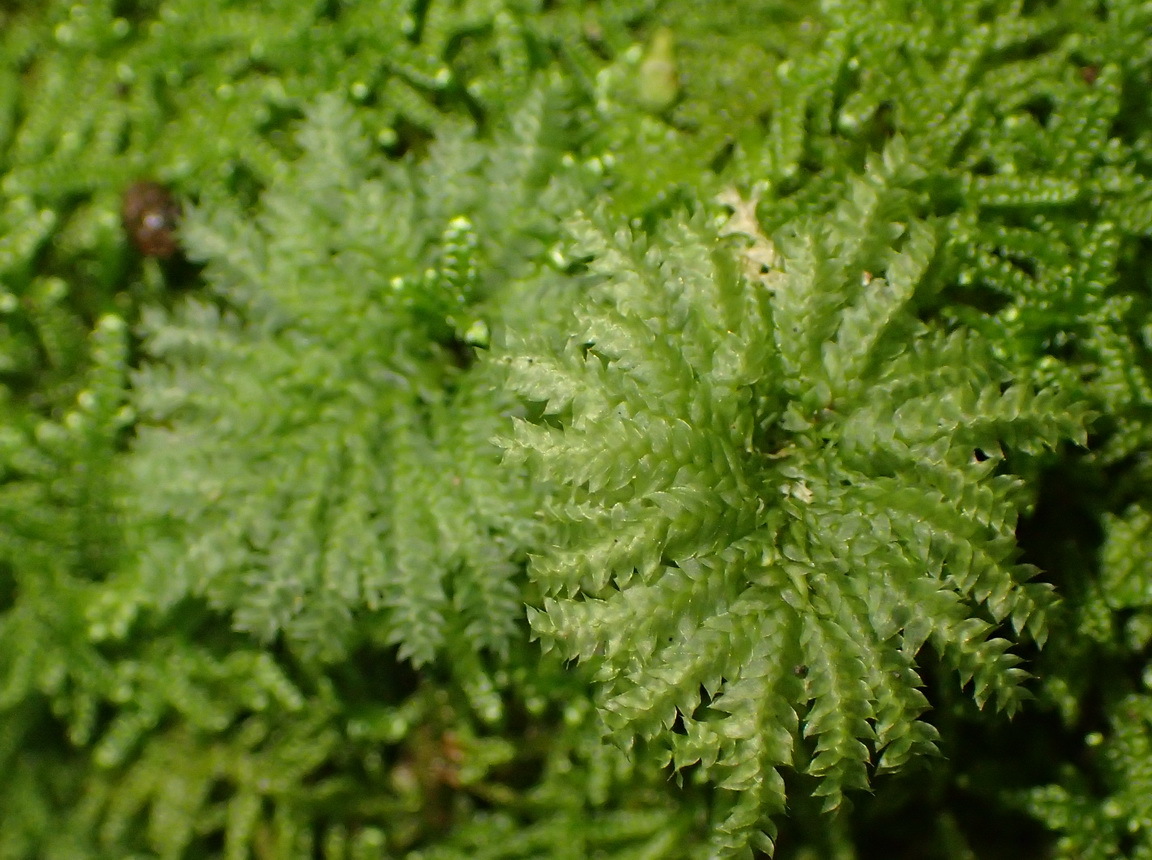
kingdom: Plantae
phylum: Bryophyta
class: Bryopsida
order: Hypopterygiales
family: Hypopterygiaceae
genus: Hypopterygium
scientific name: Hypopterygium tamarisci
